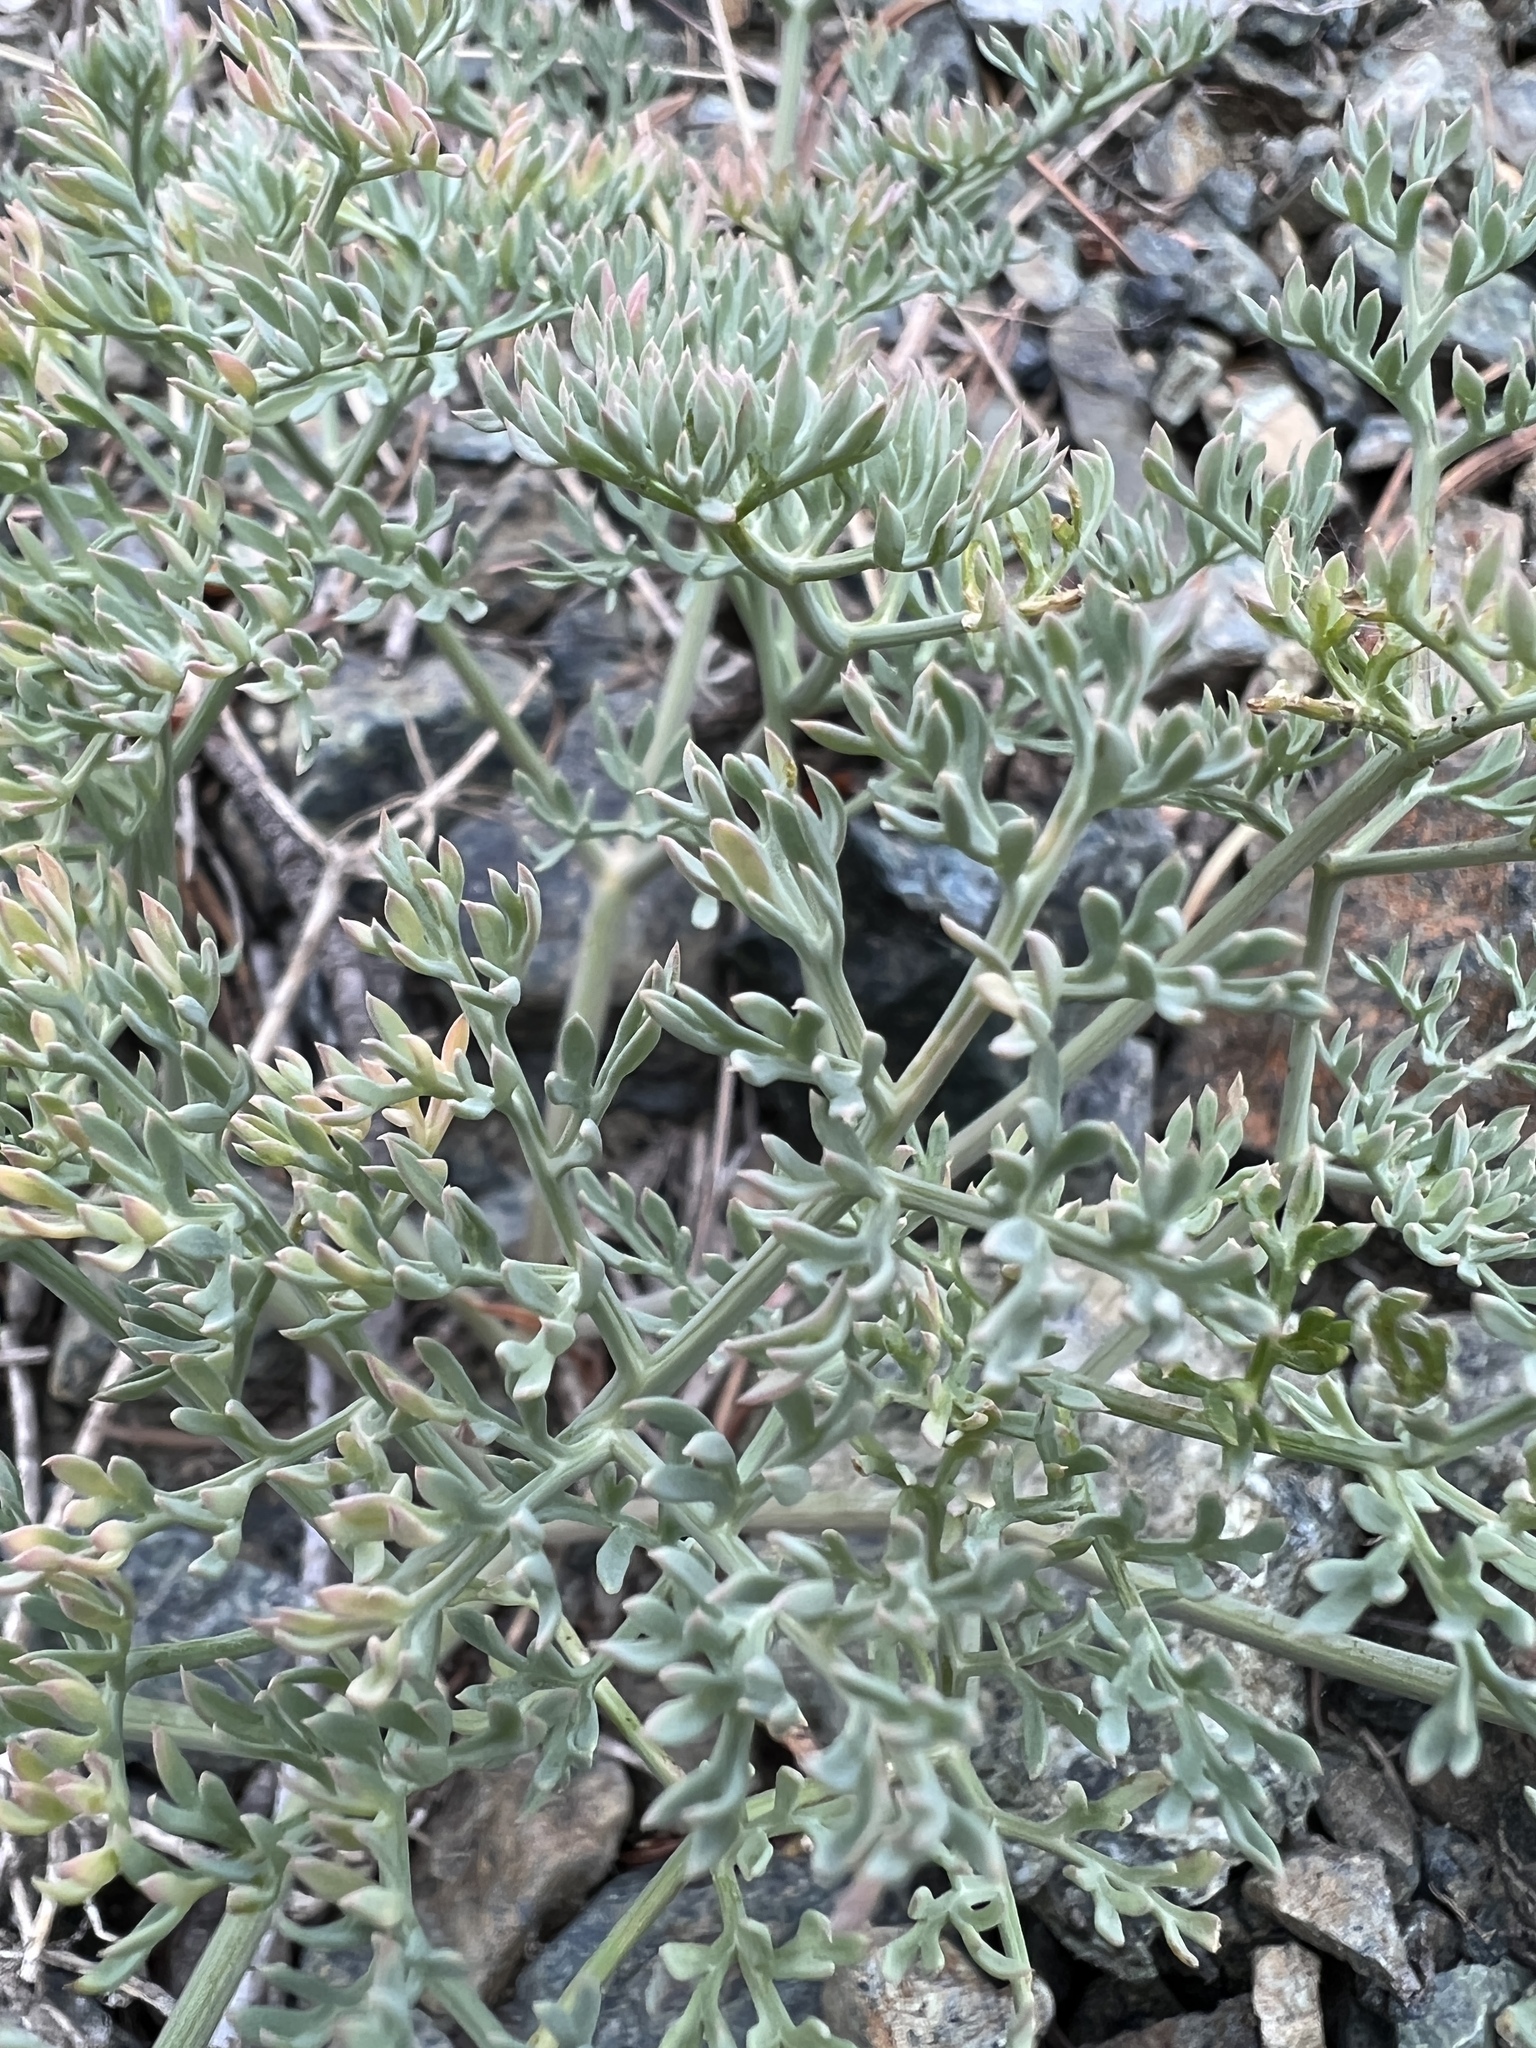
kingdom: Plantae
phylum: Tracheophyta
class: Magnoliopsida
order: Apiales
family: Apiaceae
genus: Lomatium
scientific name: Lomatium cuspidatum
